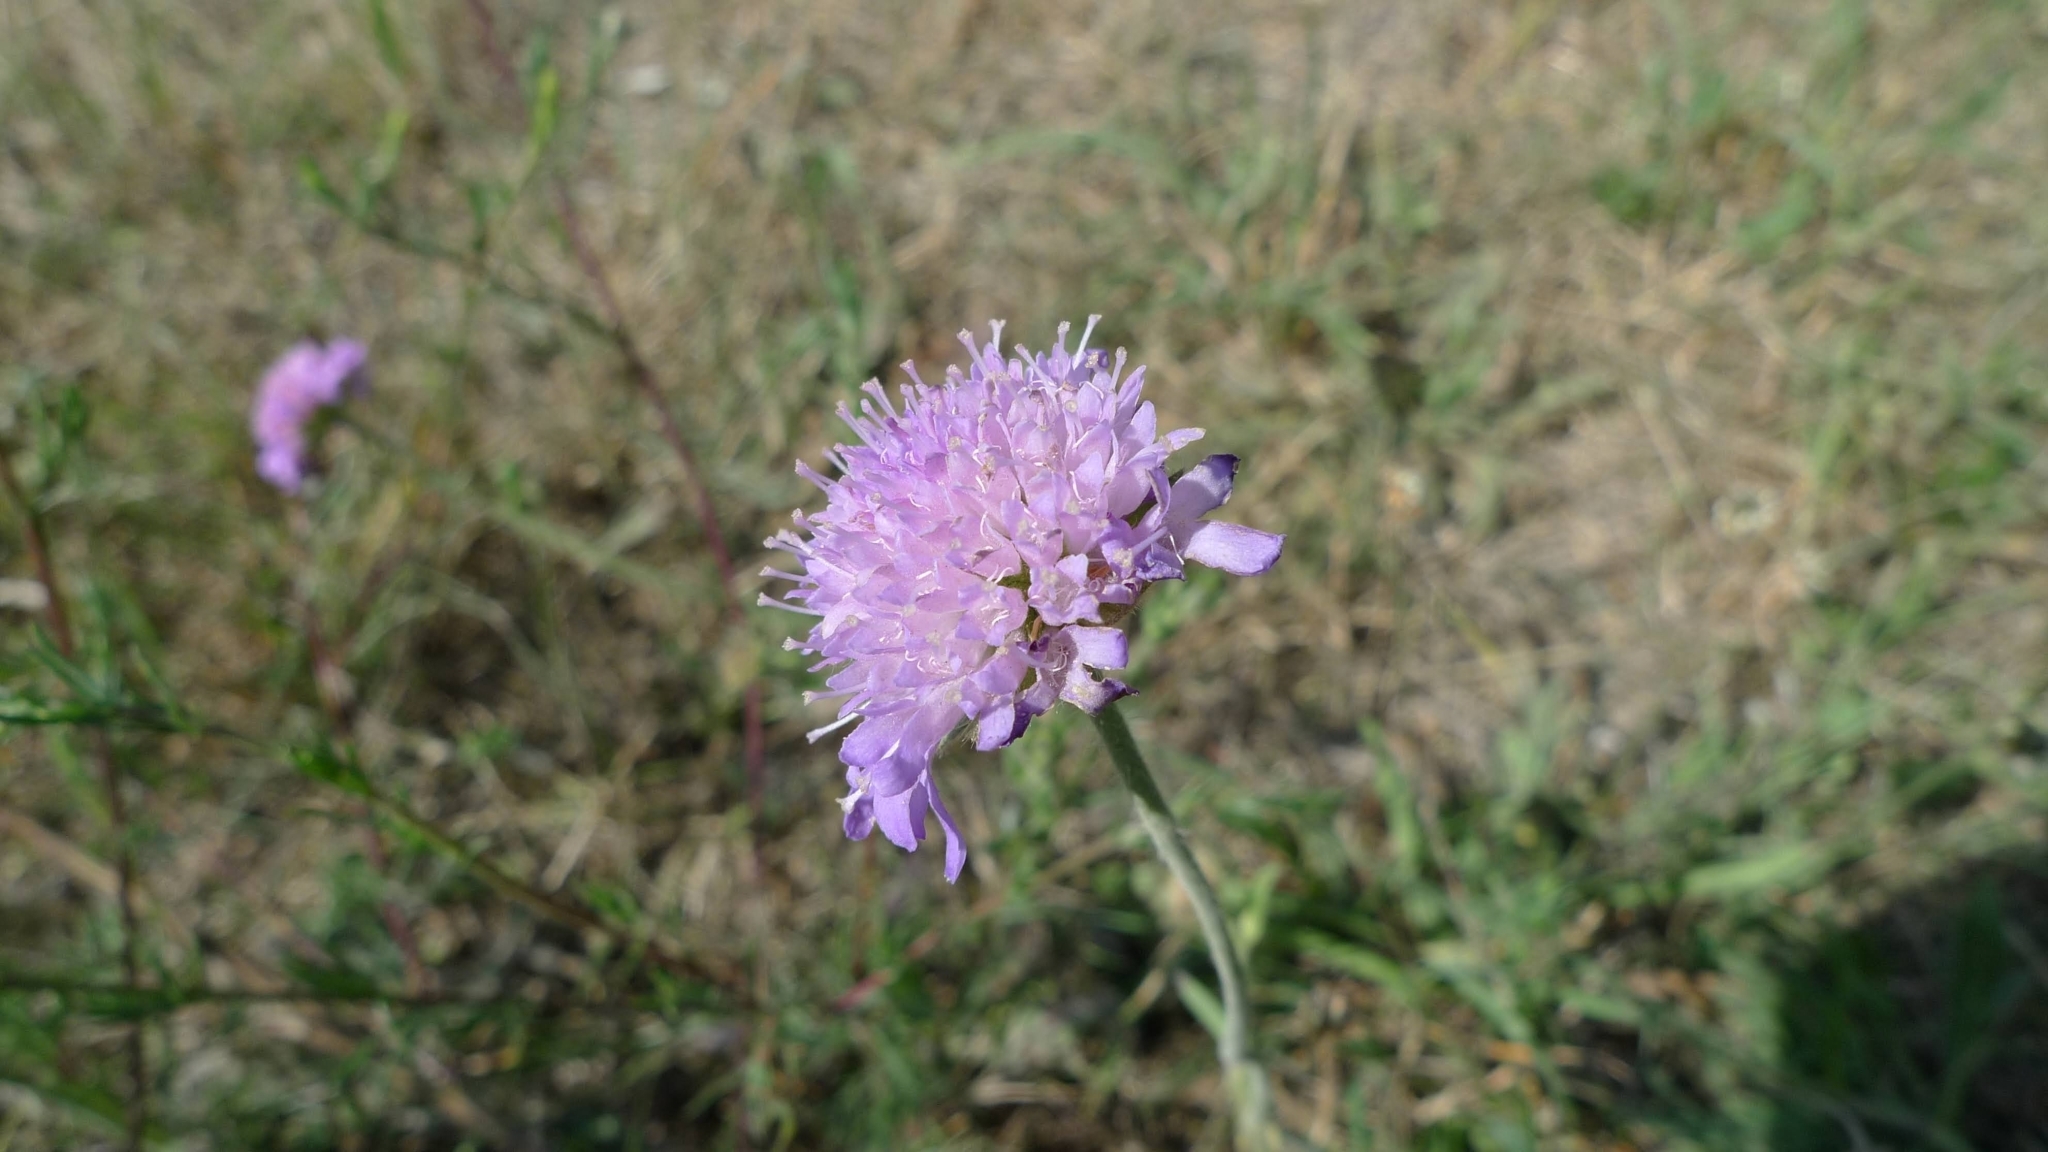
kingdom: Plantae
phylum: Tracheophyta
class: Magnoliopsida
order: Dipsacales
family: Caprifoliaceae
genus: Knautia
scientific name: Knautia arvensis
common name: Field scabiosa
